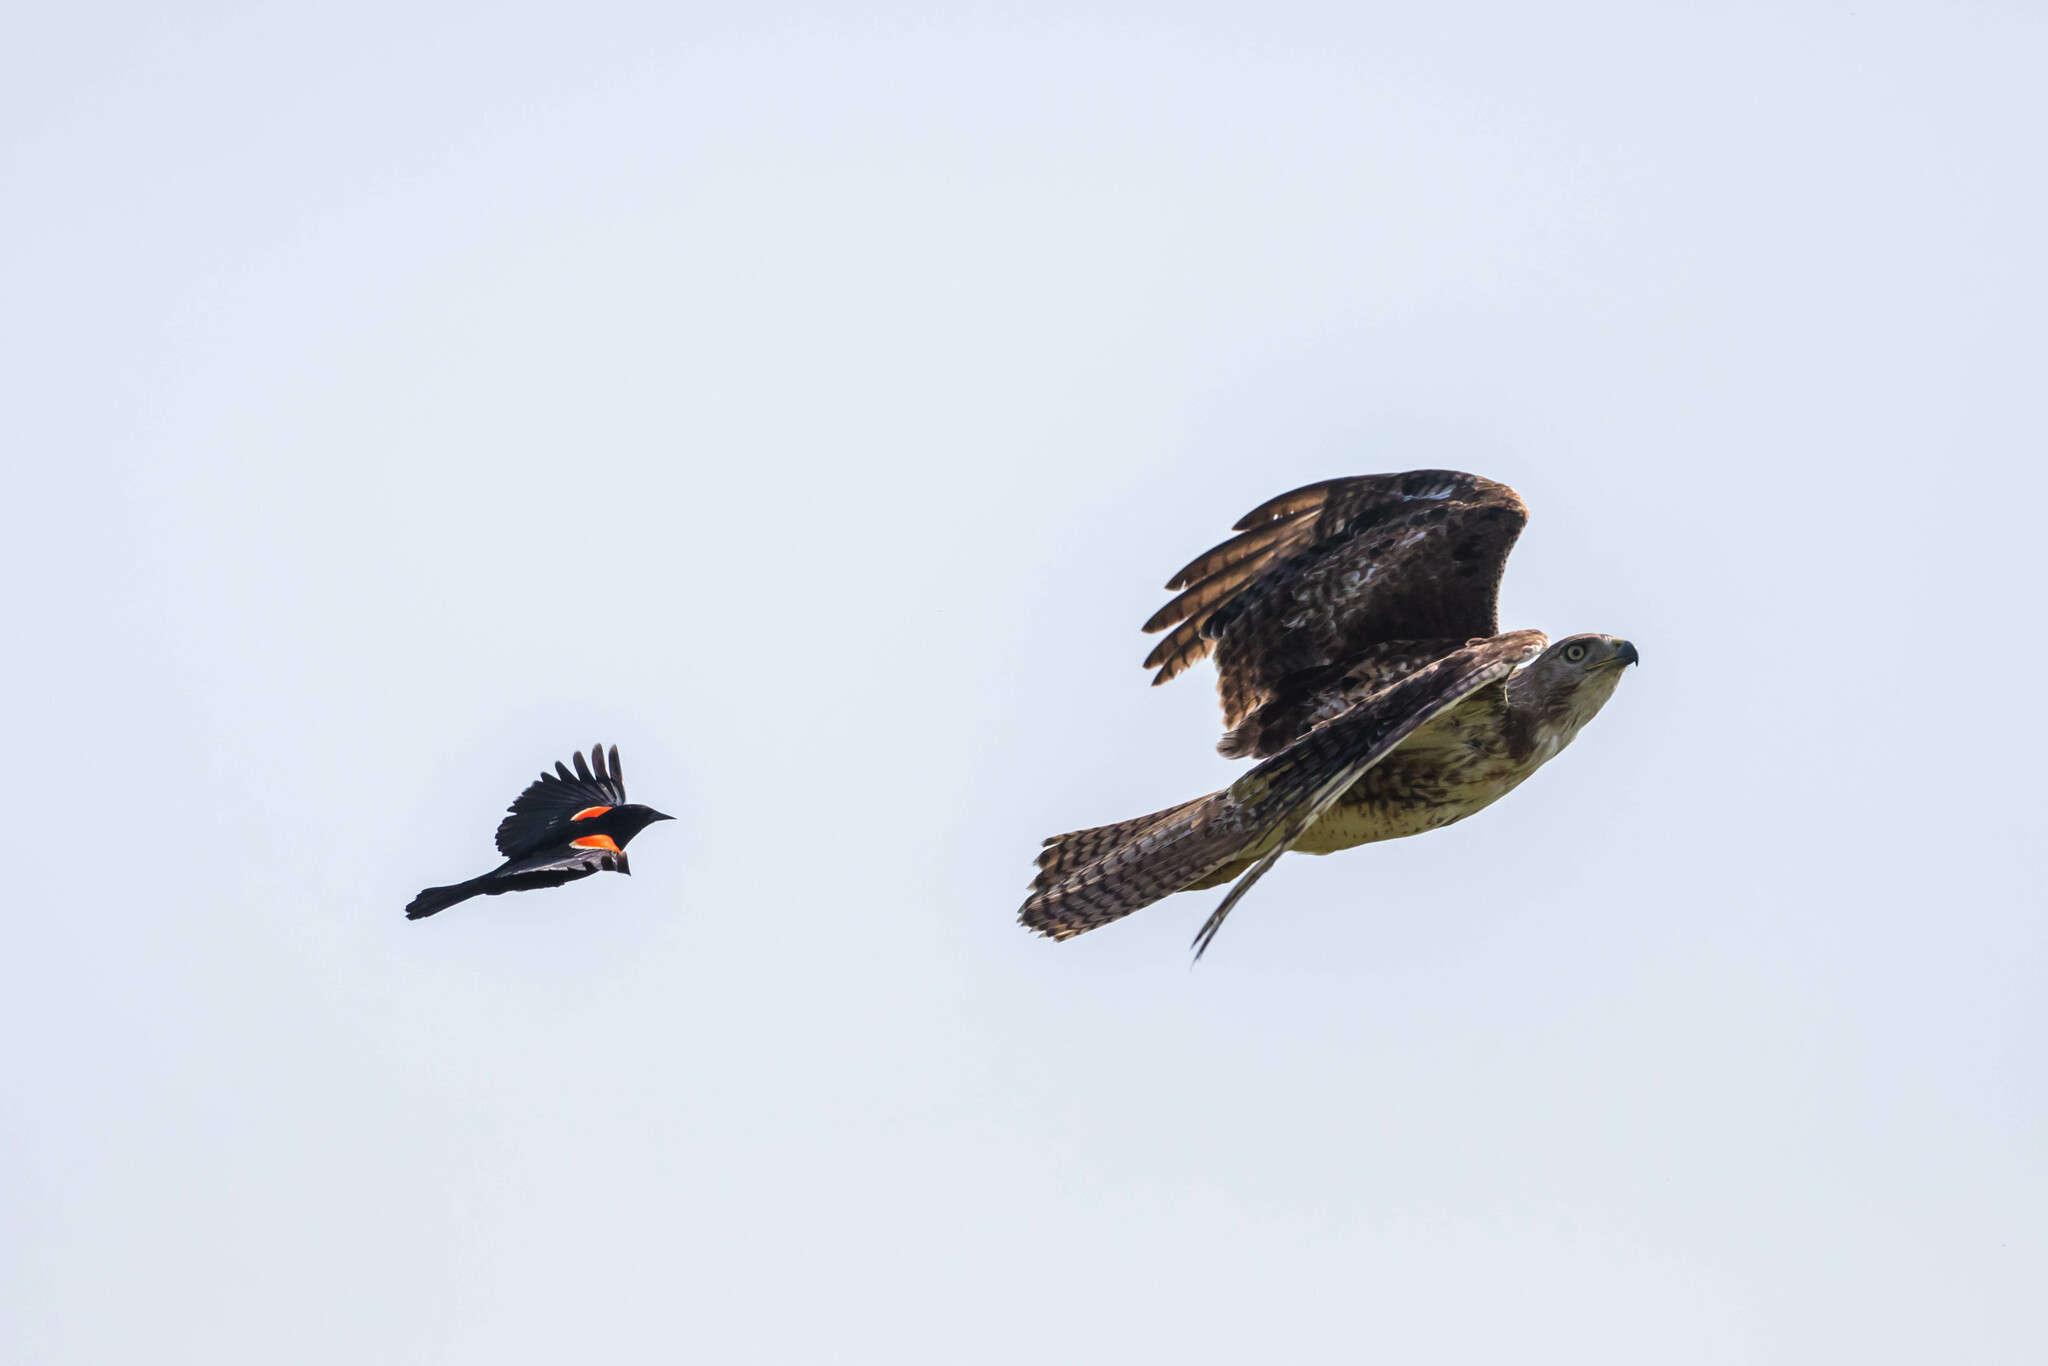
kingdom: Animalia
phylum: Chordata
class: Aves
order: Accipitriformes
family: Accipitridae
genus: Buteo
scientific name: Buteo jamaicensis
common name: Red-tailed hawk
